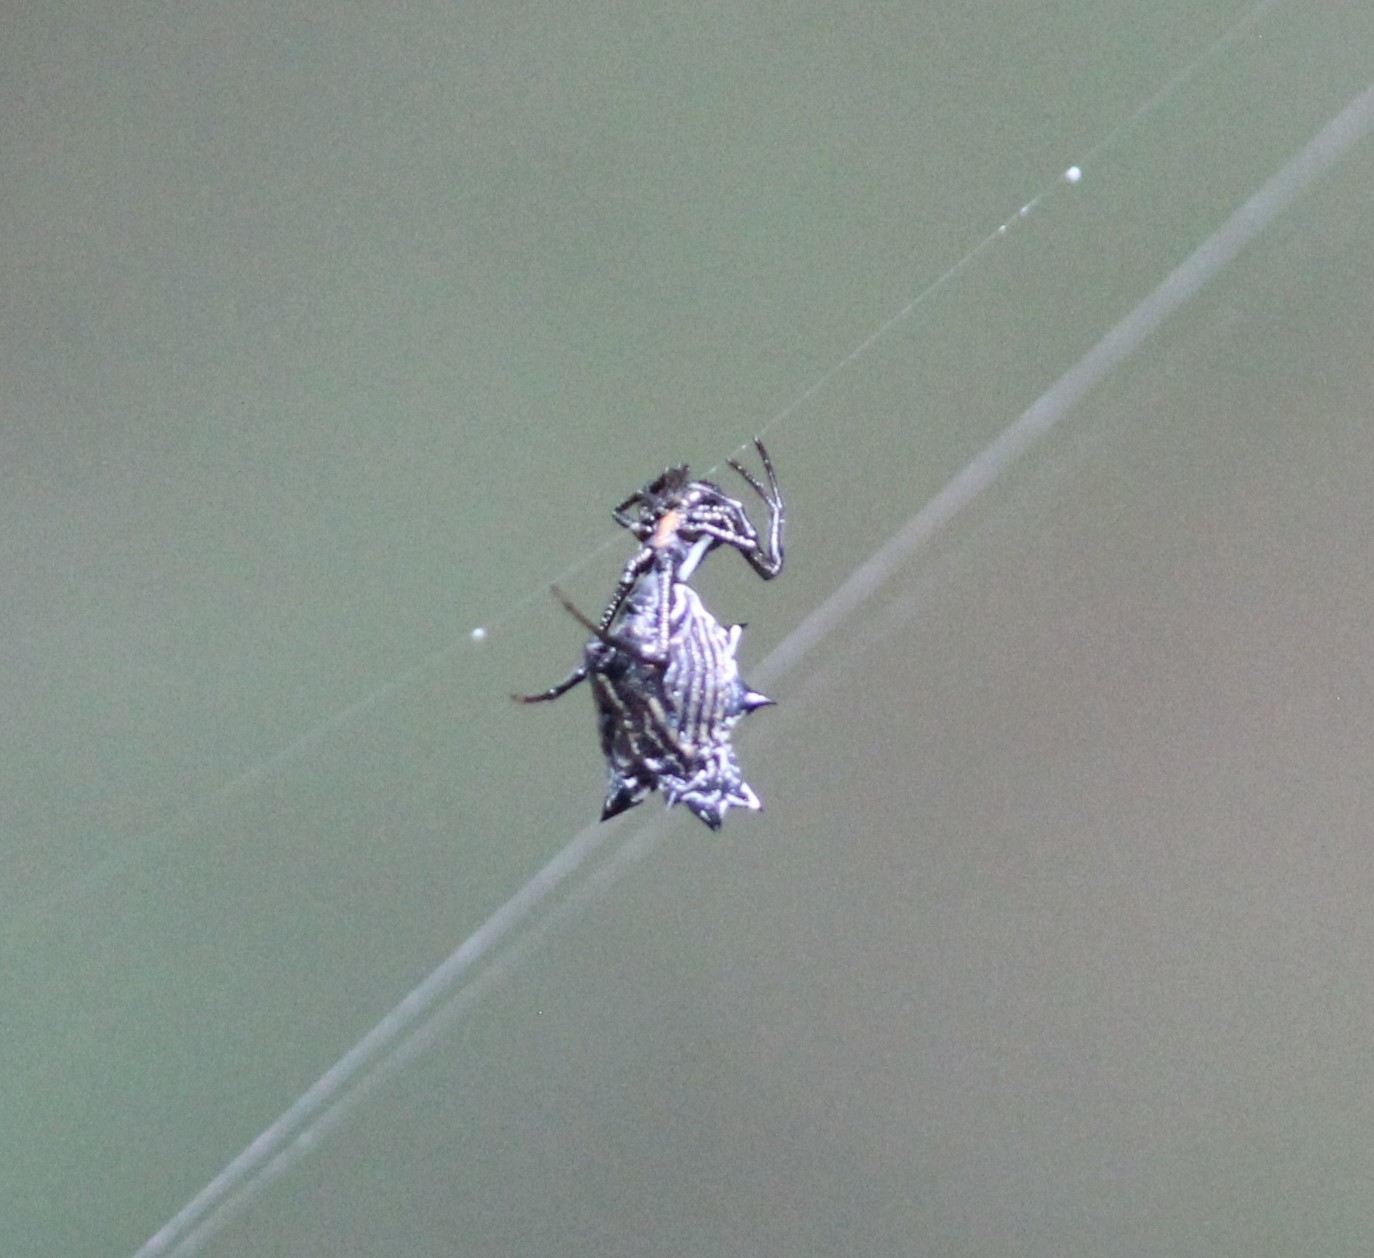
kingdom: Animalia
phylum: Arthropoda
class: Arachnida
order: Araneae
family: Araneidae
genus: Micrathena
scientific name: Micrathena gracilis
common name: Orb weavers
